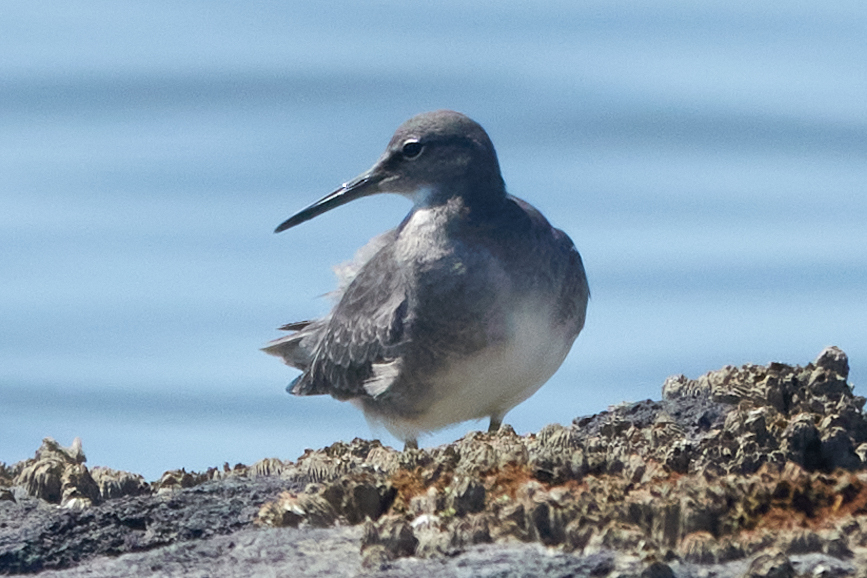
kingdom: Animalia
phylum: Chordata
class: Aves
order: Charadriiformes
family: Scolopacidae
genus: Tringa
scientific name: Tringa incana
